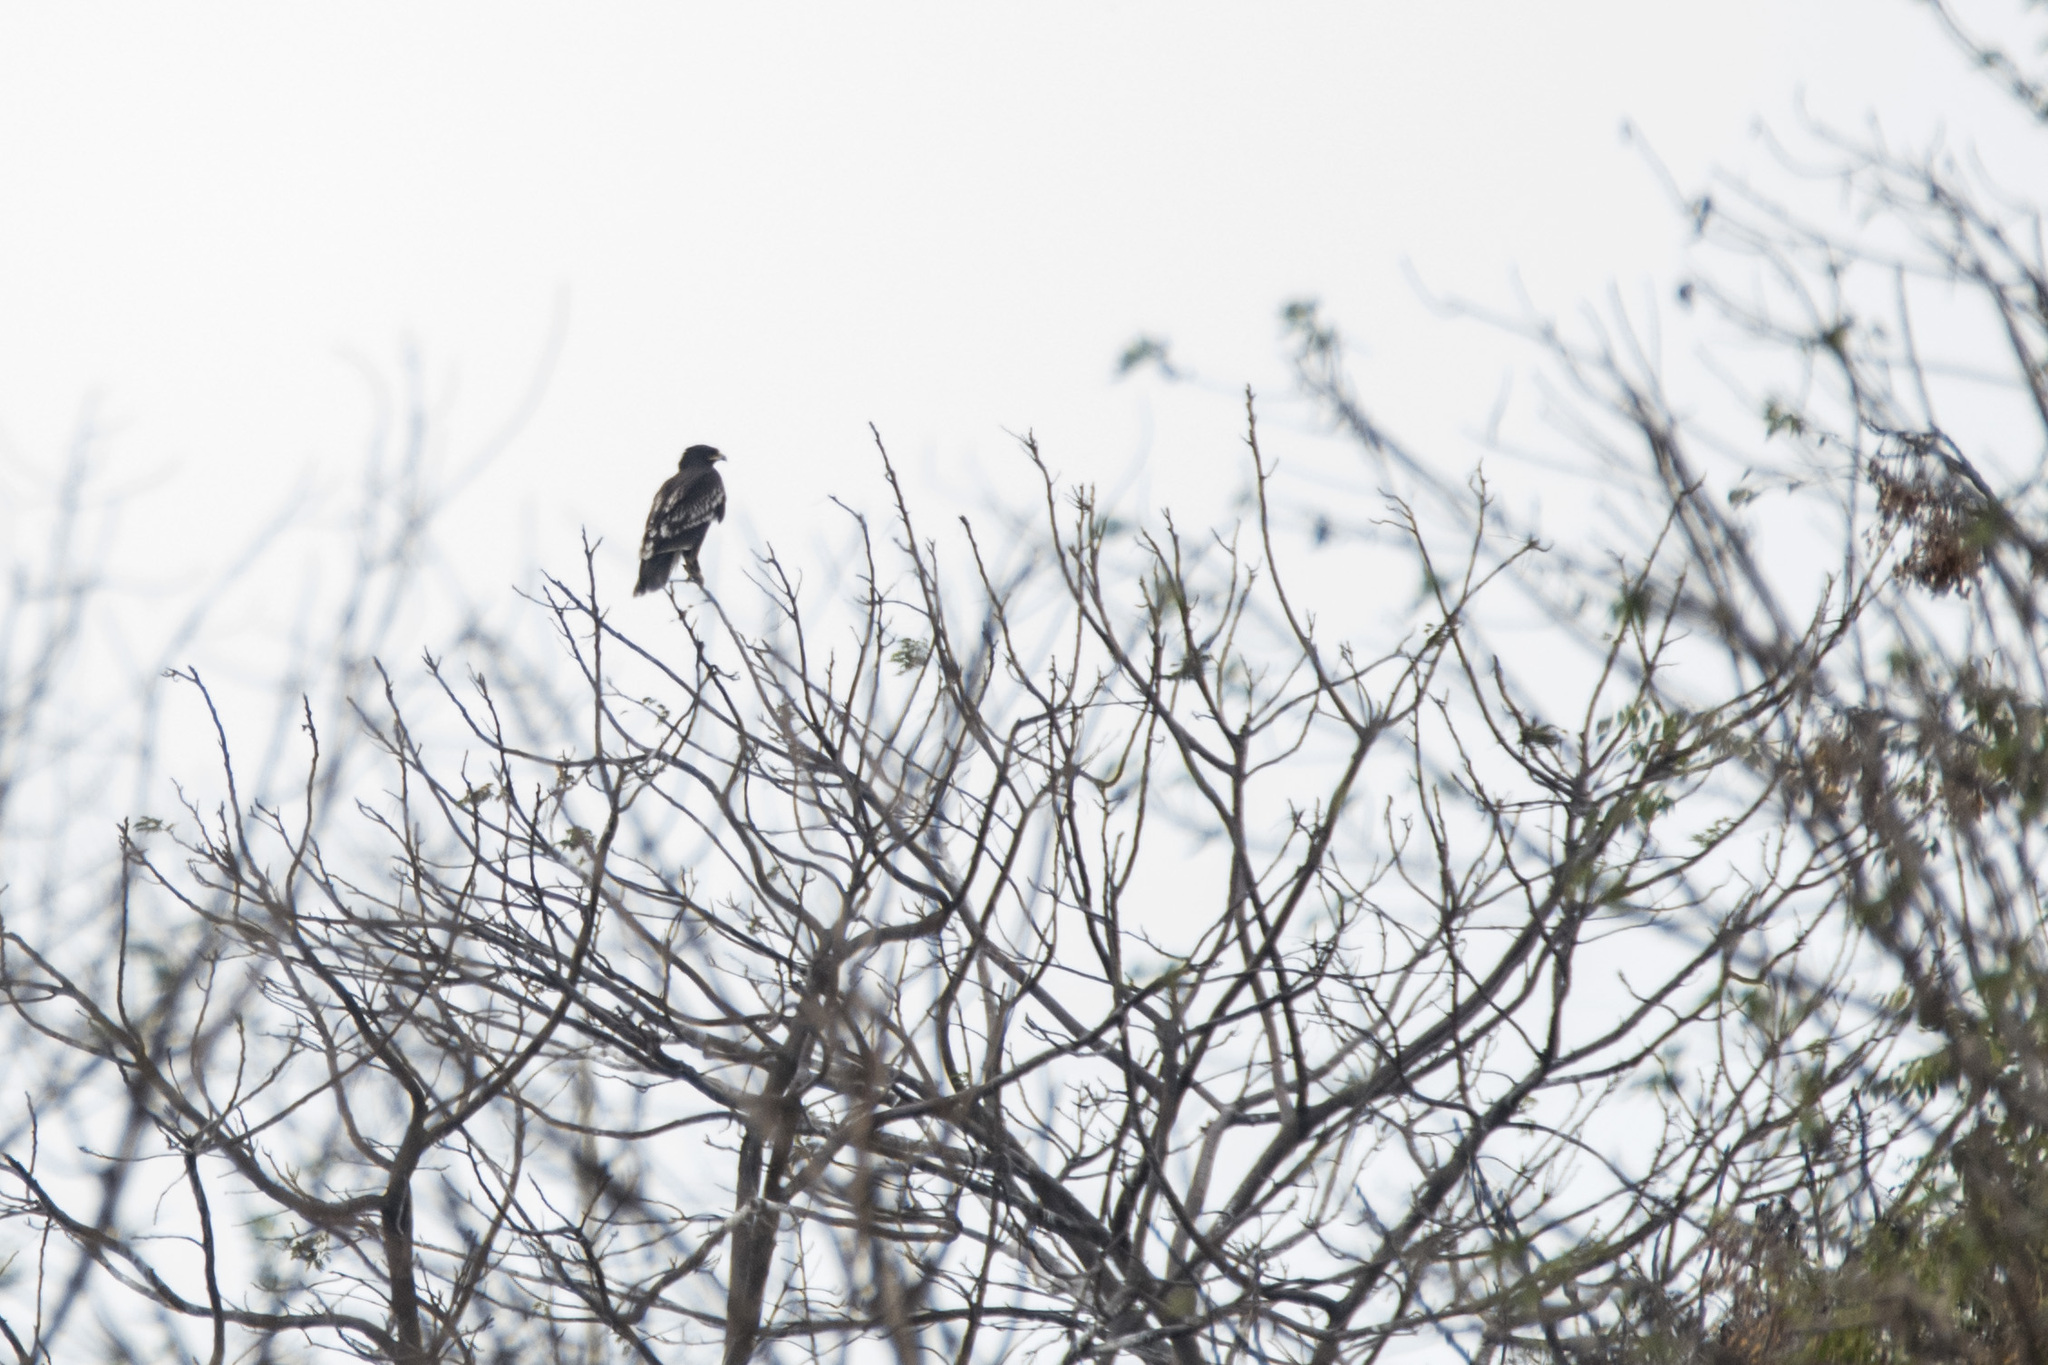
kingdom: Animalia
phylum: Chordata
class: Aves
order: Accipitriformes
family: Accipitridae
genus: Aquila
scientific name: Aquila clanga
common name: Greater spotted eagle
